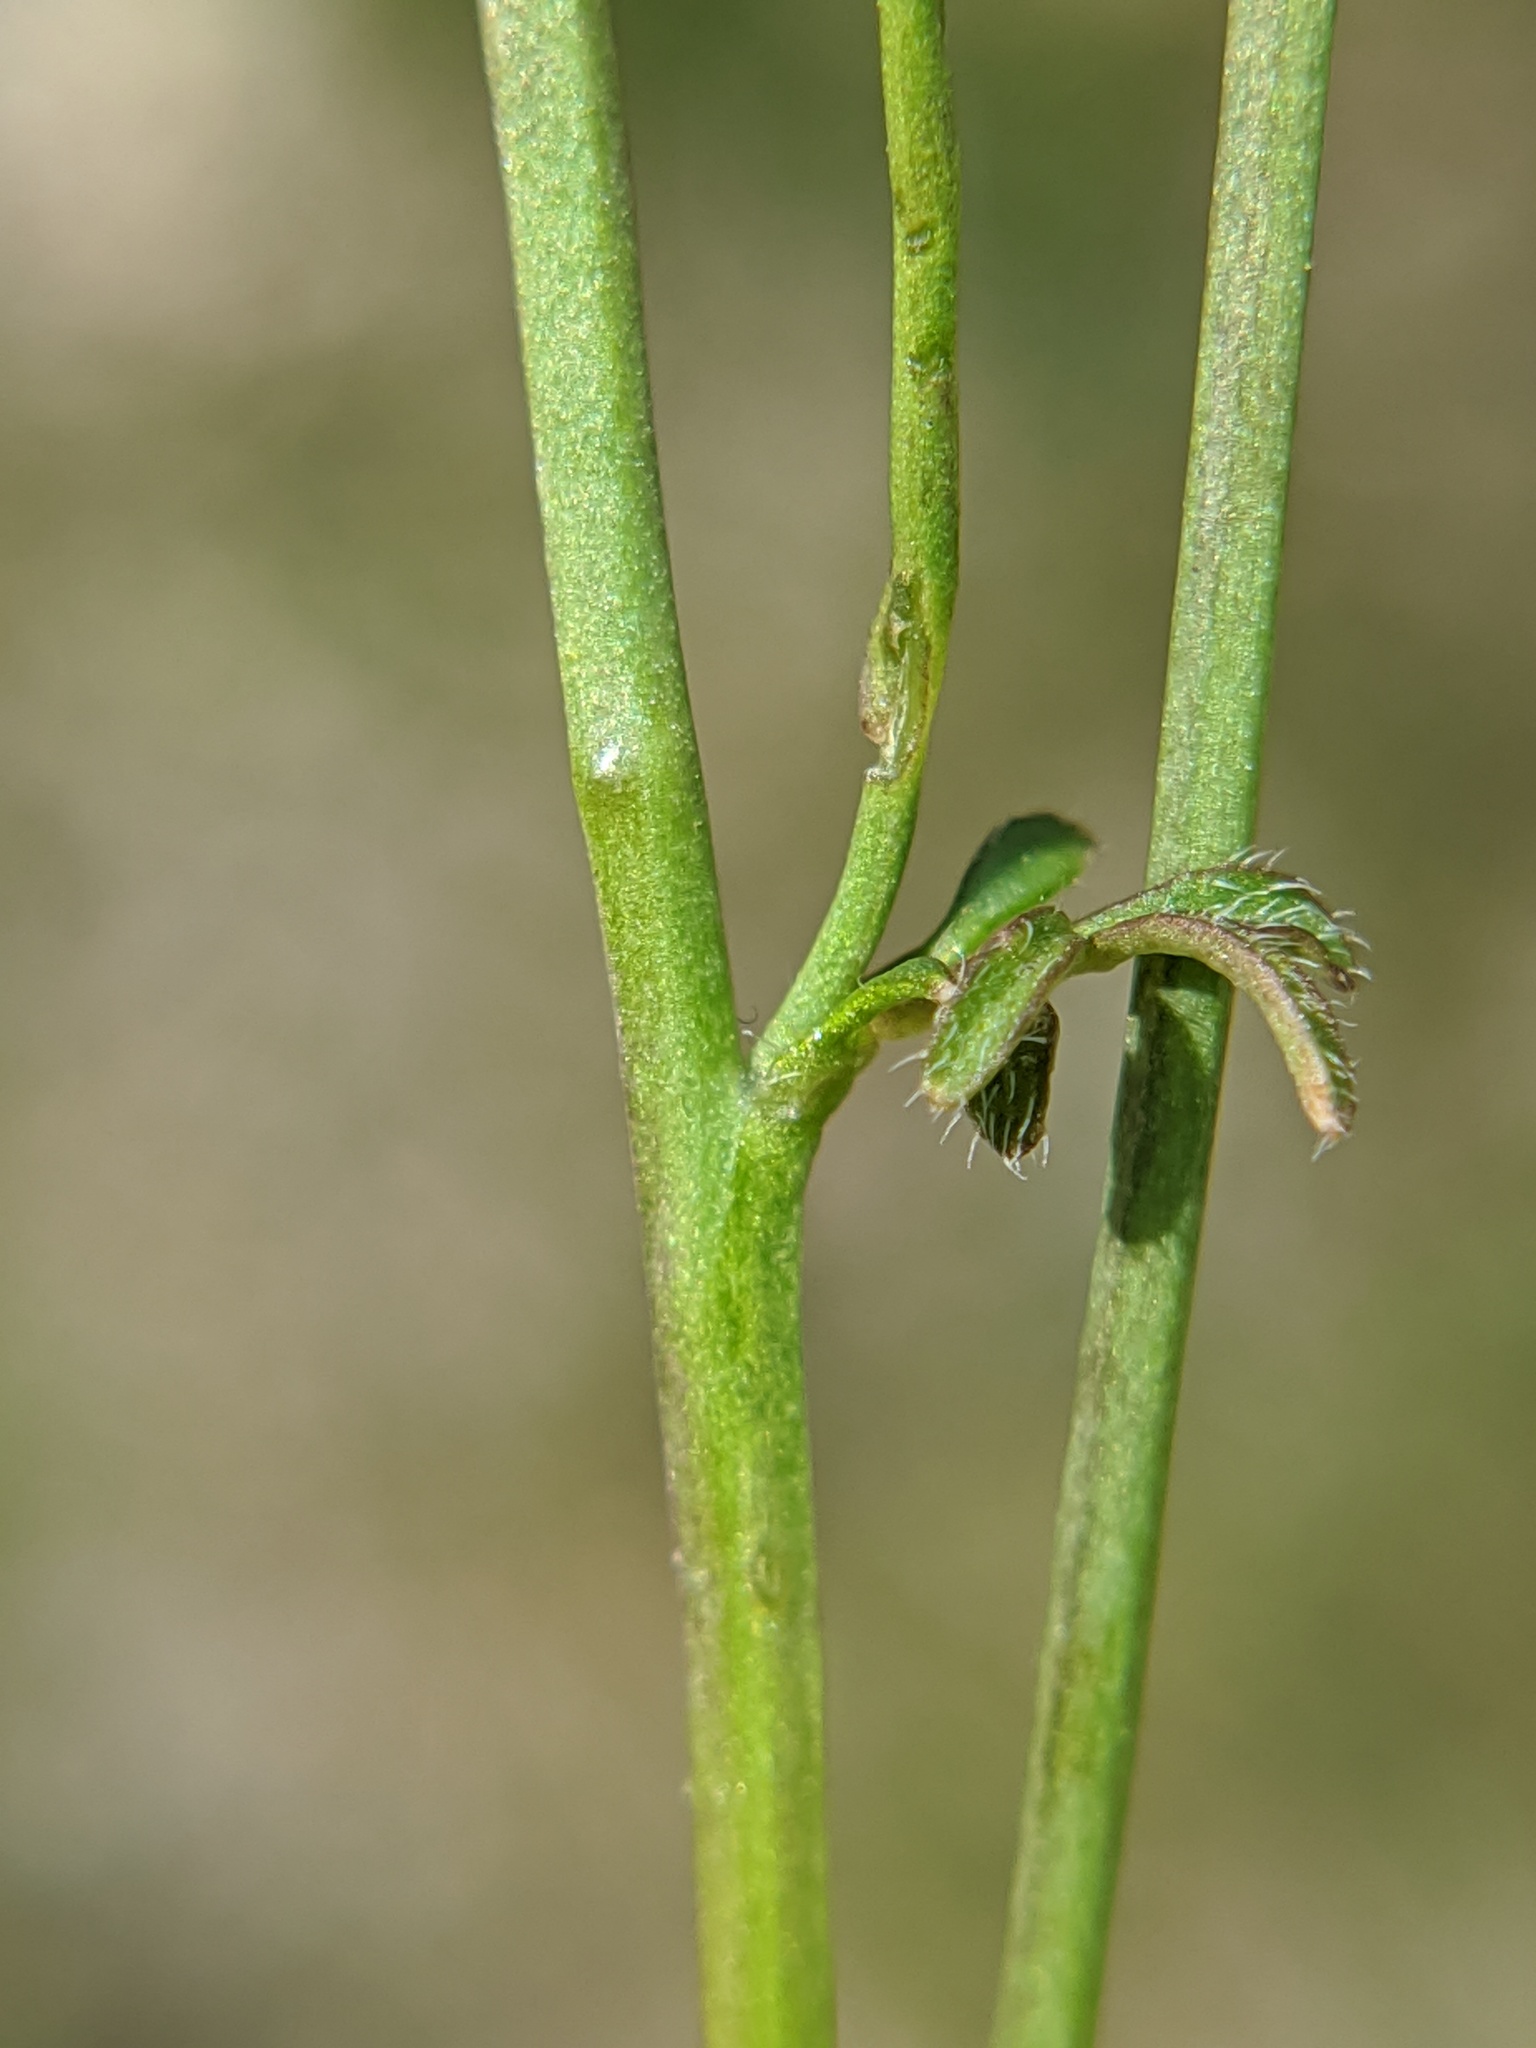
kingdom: Plantae
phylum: Tracheophyta
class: Magnoliopsida
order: Brassicales
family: Brassicaceae
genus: Cardamine
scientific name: Cardamine hirsuta
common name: Hairy bittercress
